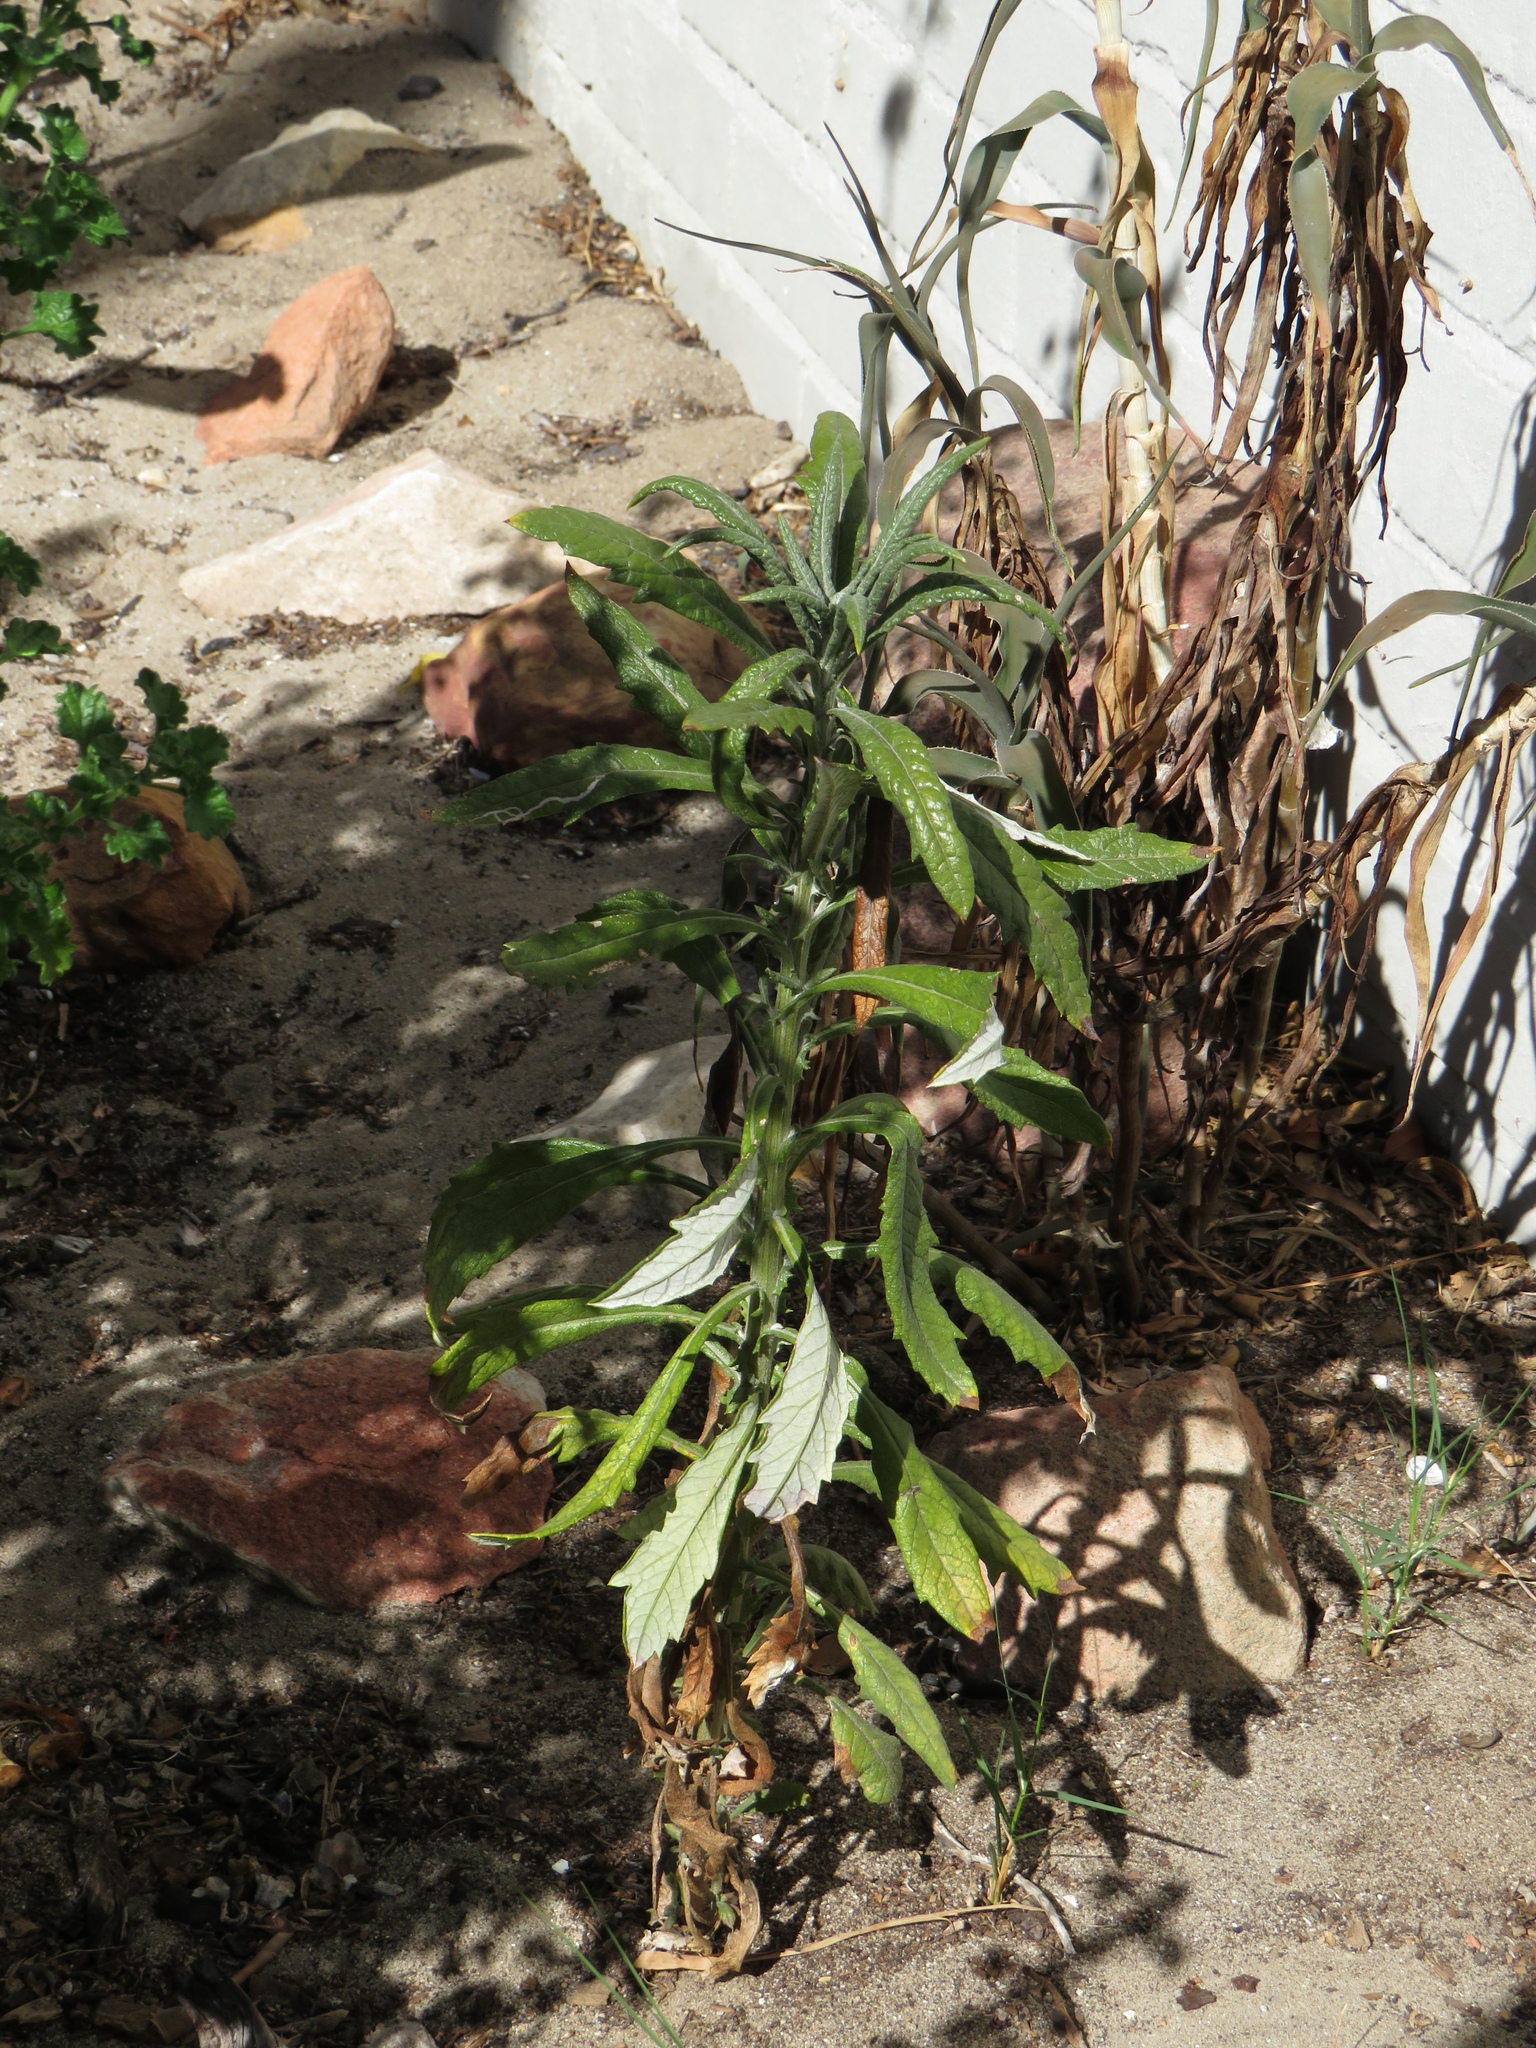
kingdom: Plantae
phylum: Tracheophyta
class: Magnoliopsida
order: Asterales
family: Asteraceae
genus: Senecio
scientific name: Senecio pterophorus
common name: Shoddy ragwort
